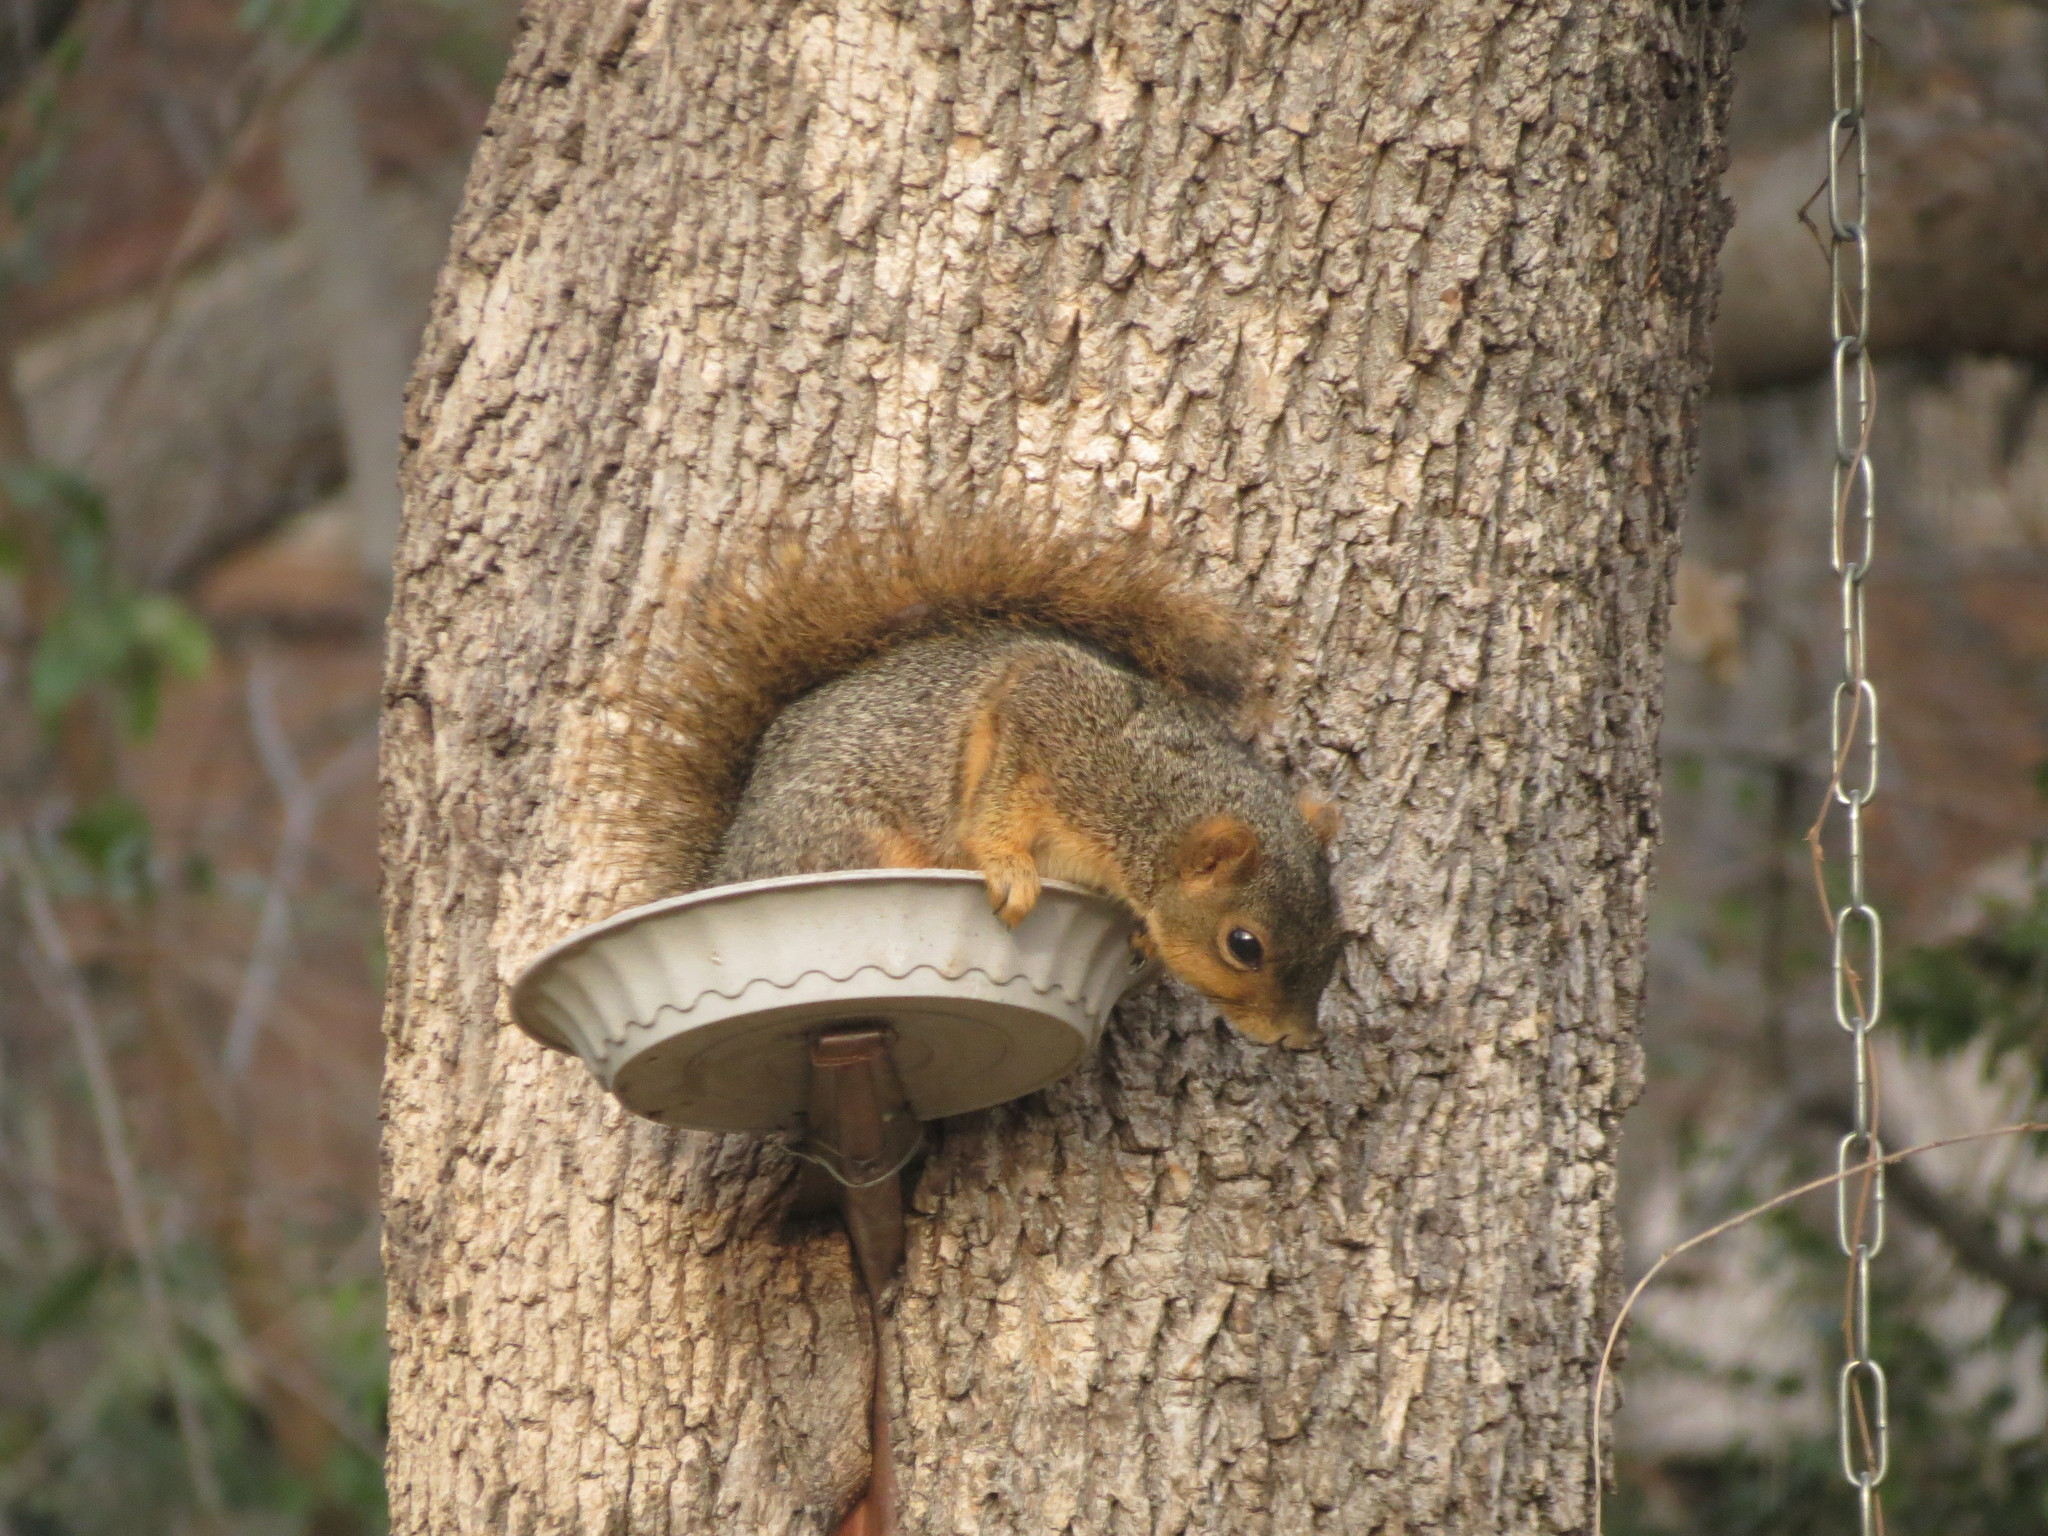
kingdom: Animalia
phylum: Chordata
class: Mammalia
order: Rodentia
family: Sciuridae
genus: Sciurus
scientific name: Sciurus niger
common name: Fox squirrel
